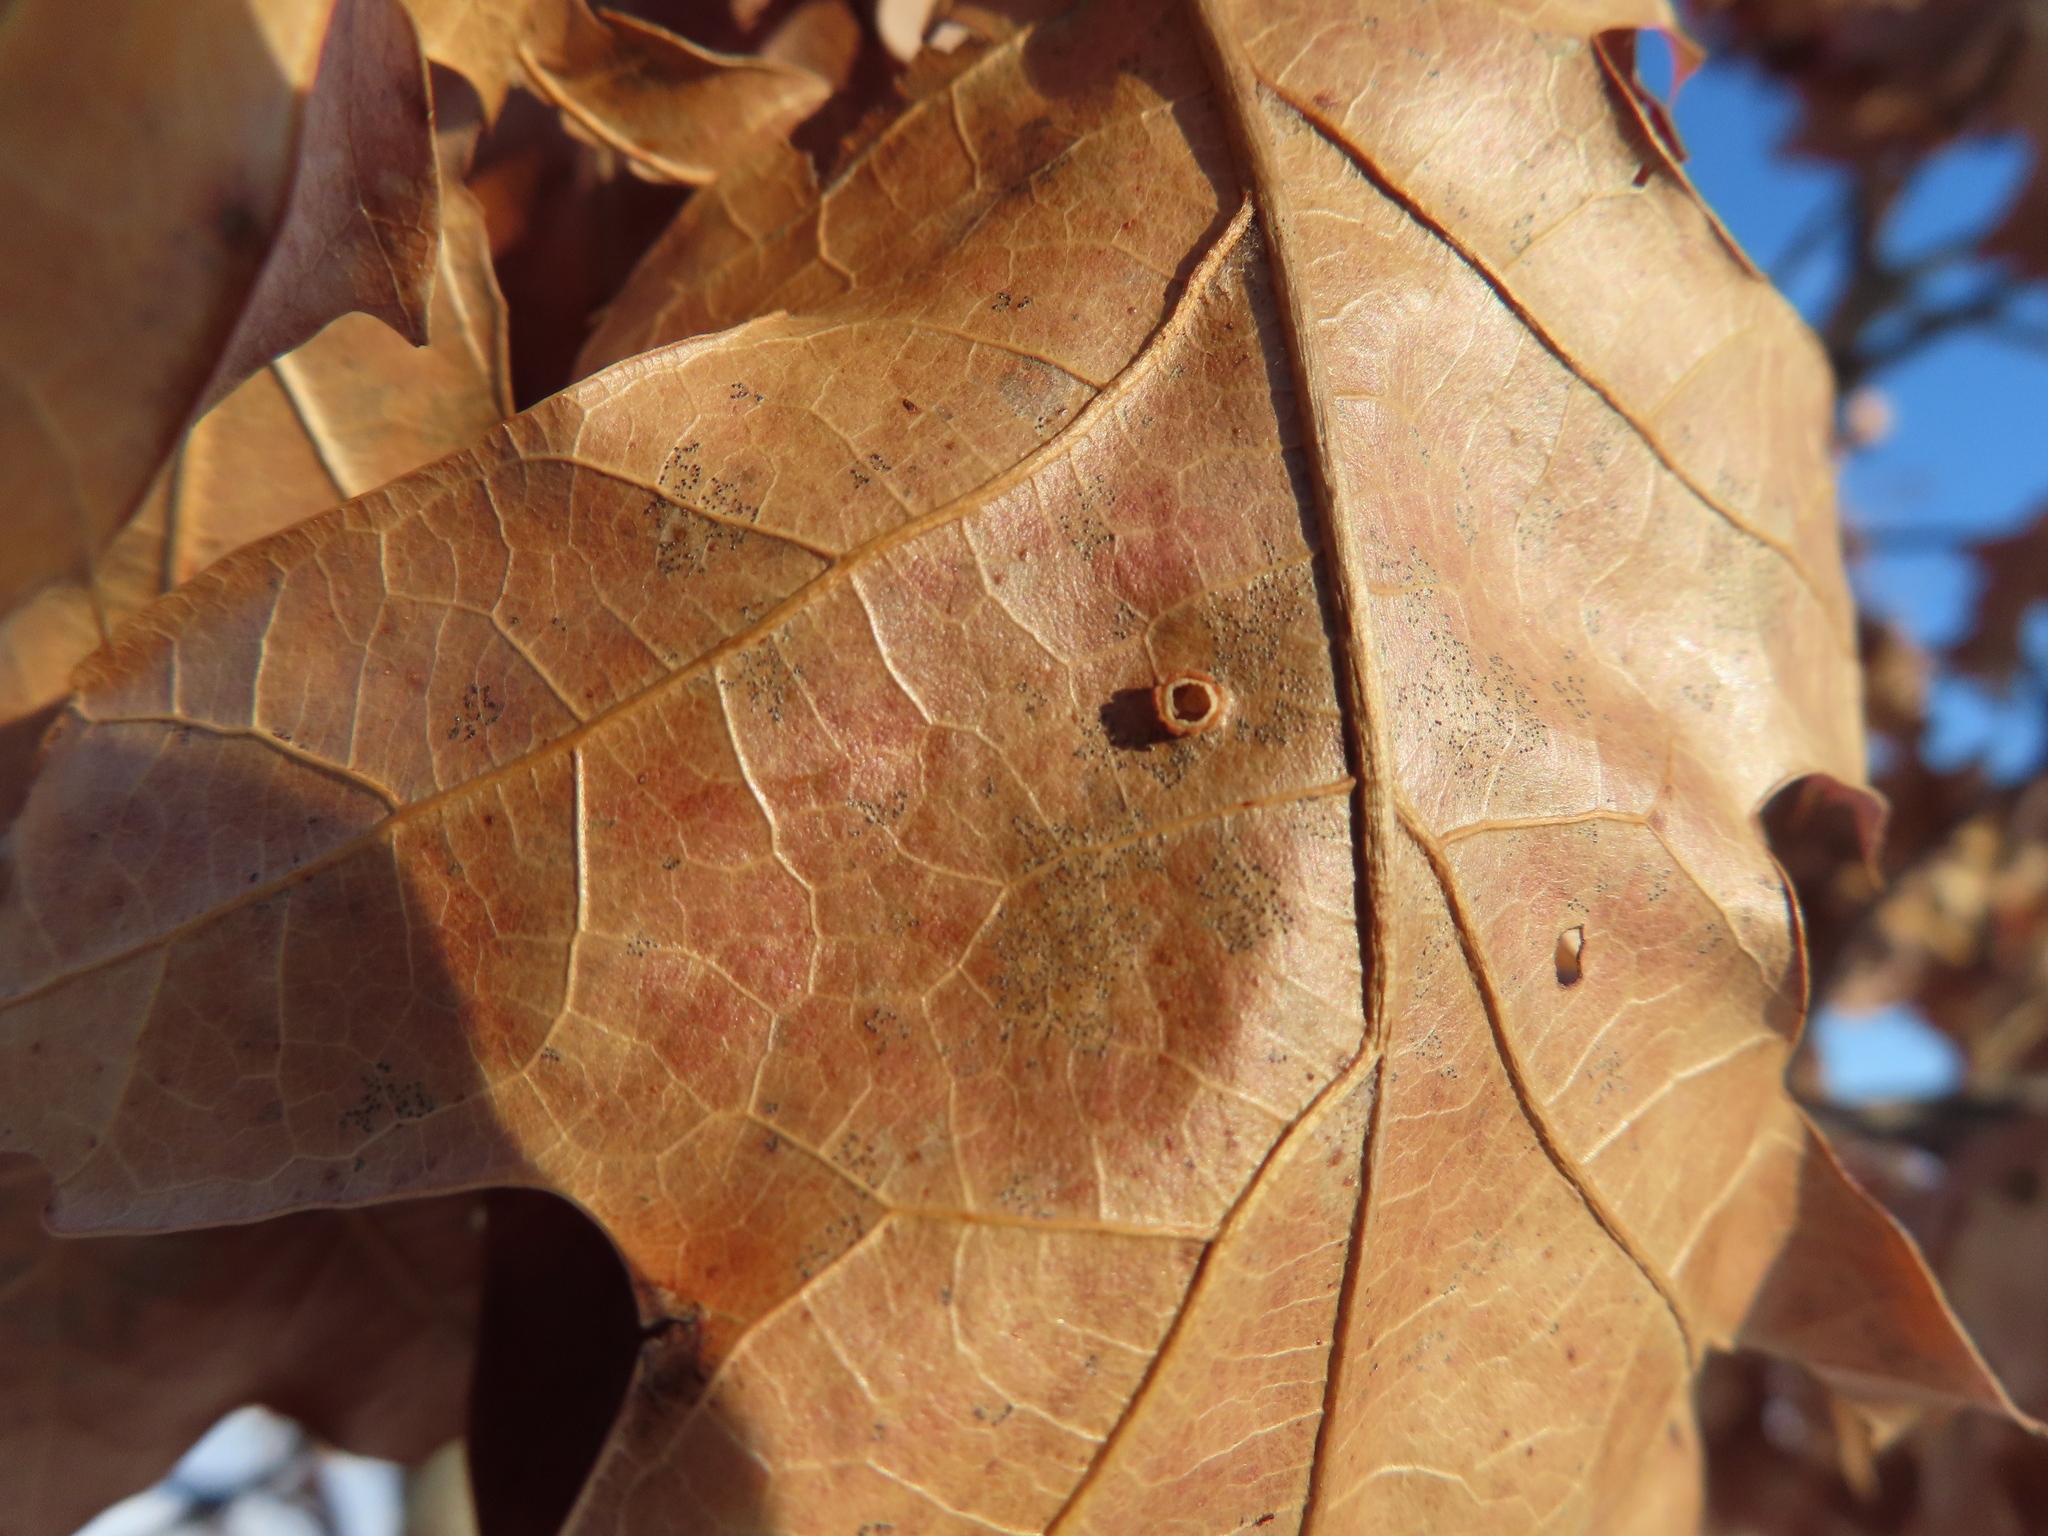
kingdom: Animalia
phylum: Arthropoda
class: Insecta
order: Diptera
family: Cecidomyiidae
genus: Polystepha
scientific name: Polystepha globosa
